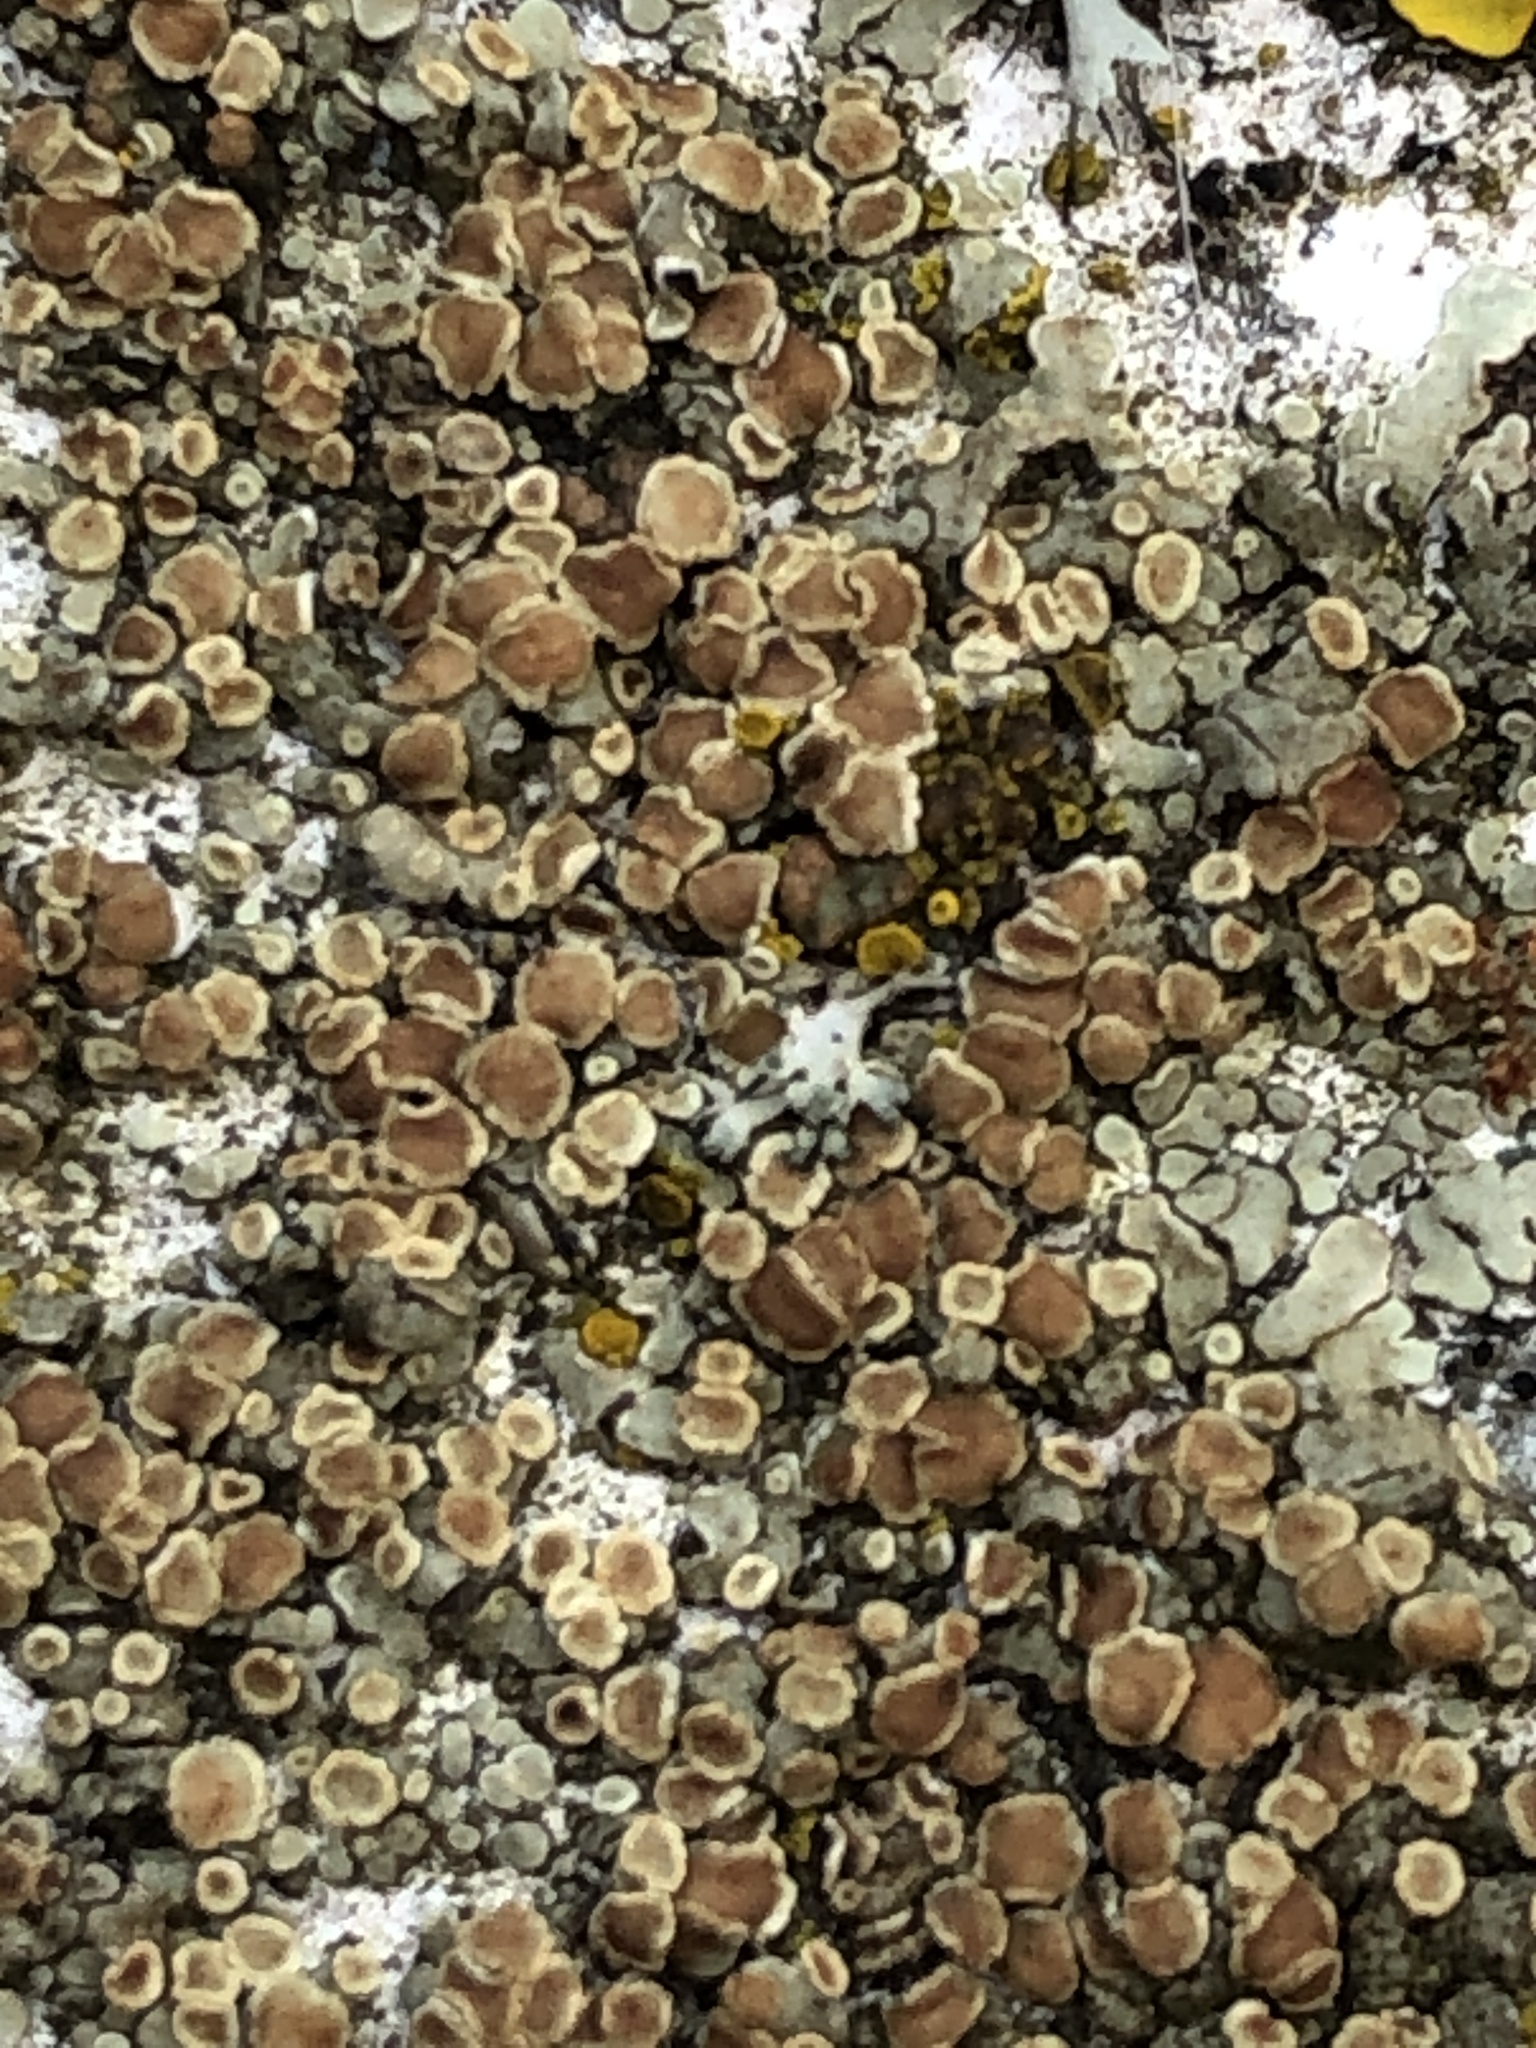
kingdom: Fungi
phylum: Ascomycota
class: Lecanoromycetes
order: Lecanorales
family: Lecanoraceae
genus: Protoparmeliopsis
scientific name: Protoparmeliopsis muralis
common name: Stonewall rim lichen
